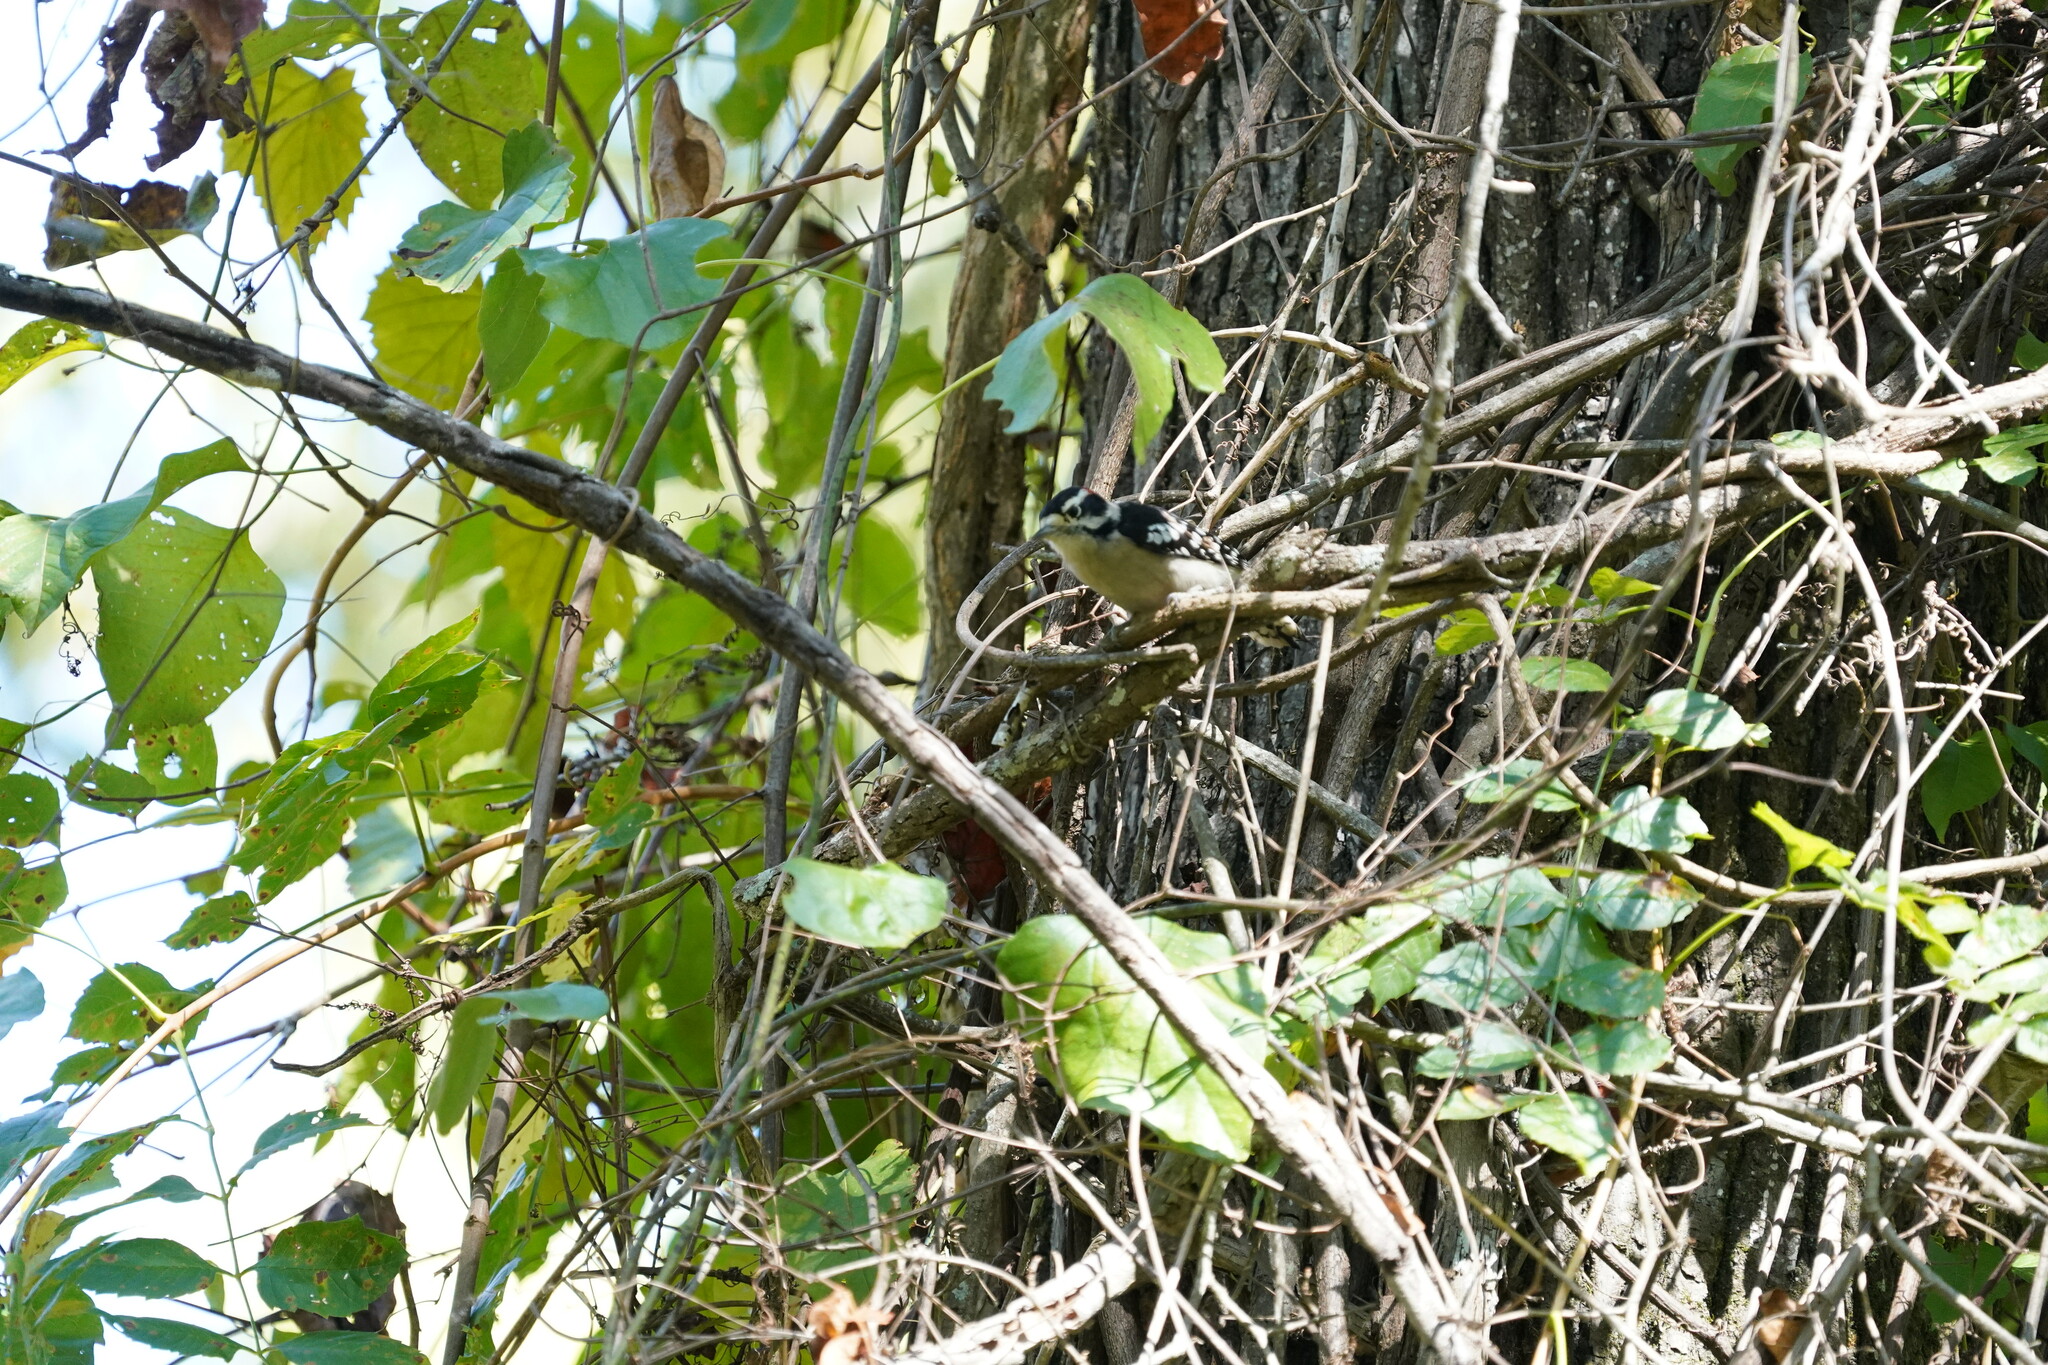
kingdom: Animalia
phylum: Chordata
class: Aves
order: Piciformes
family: Picidae
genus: Dryobates
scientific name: Dryobates pubescens
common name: Downy woodpecker
